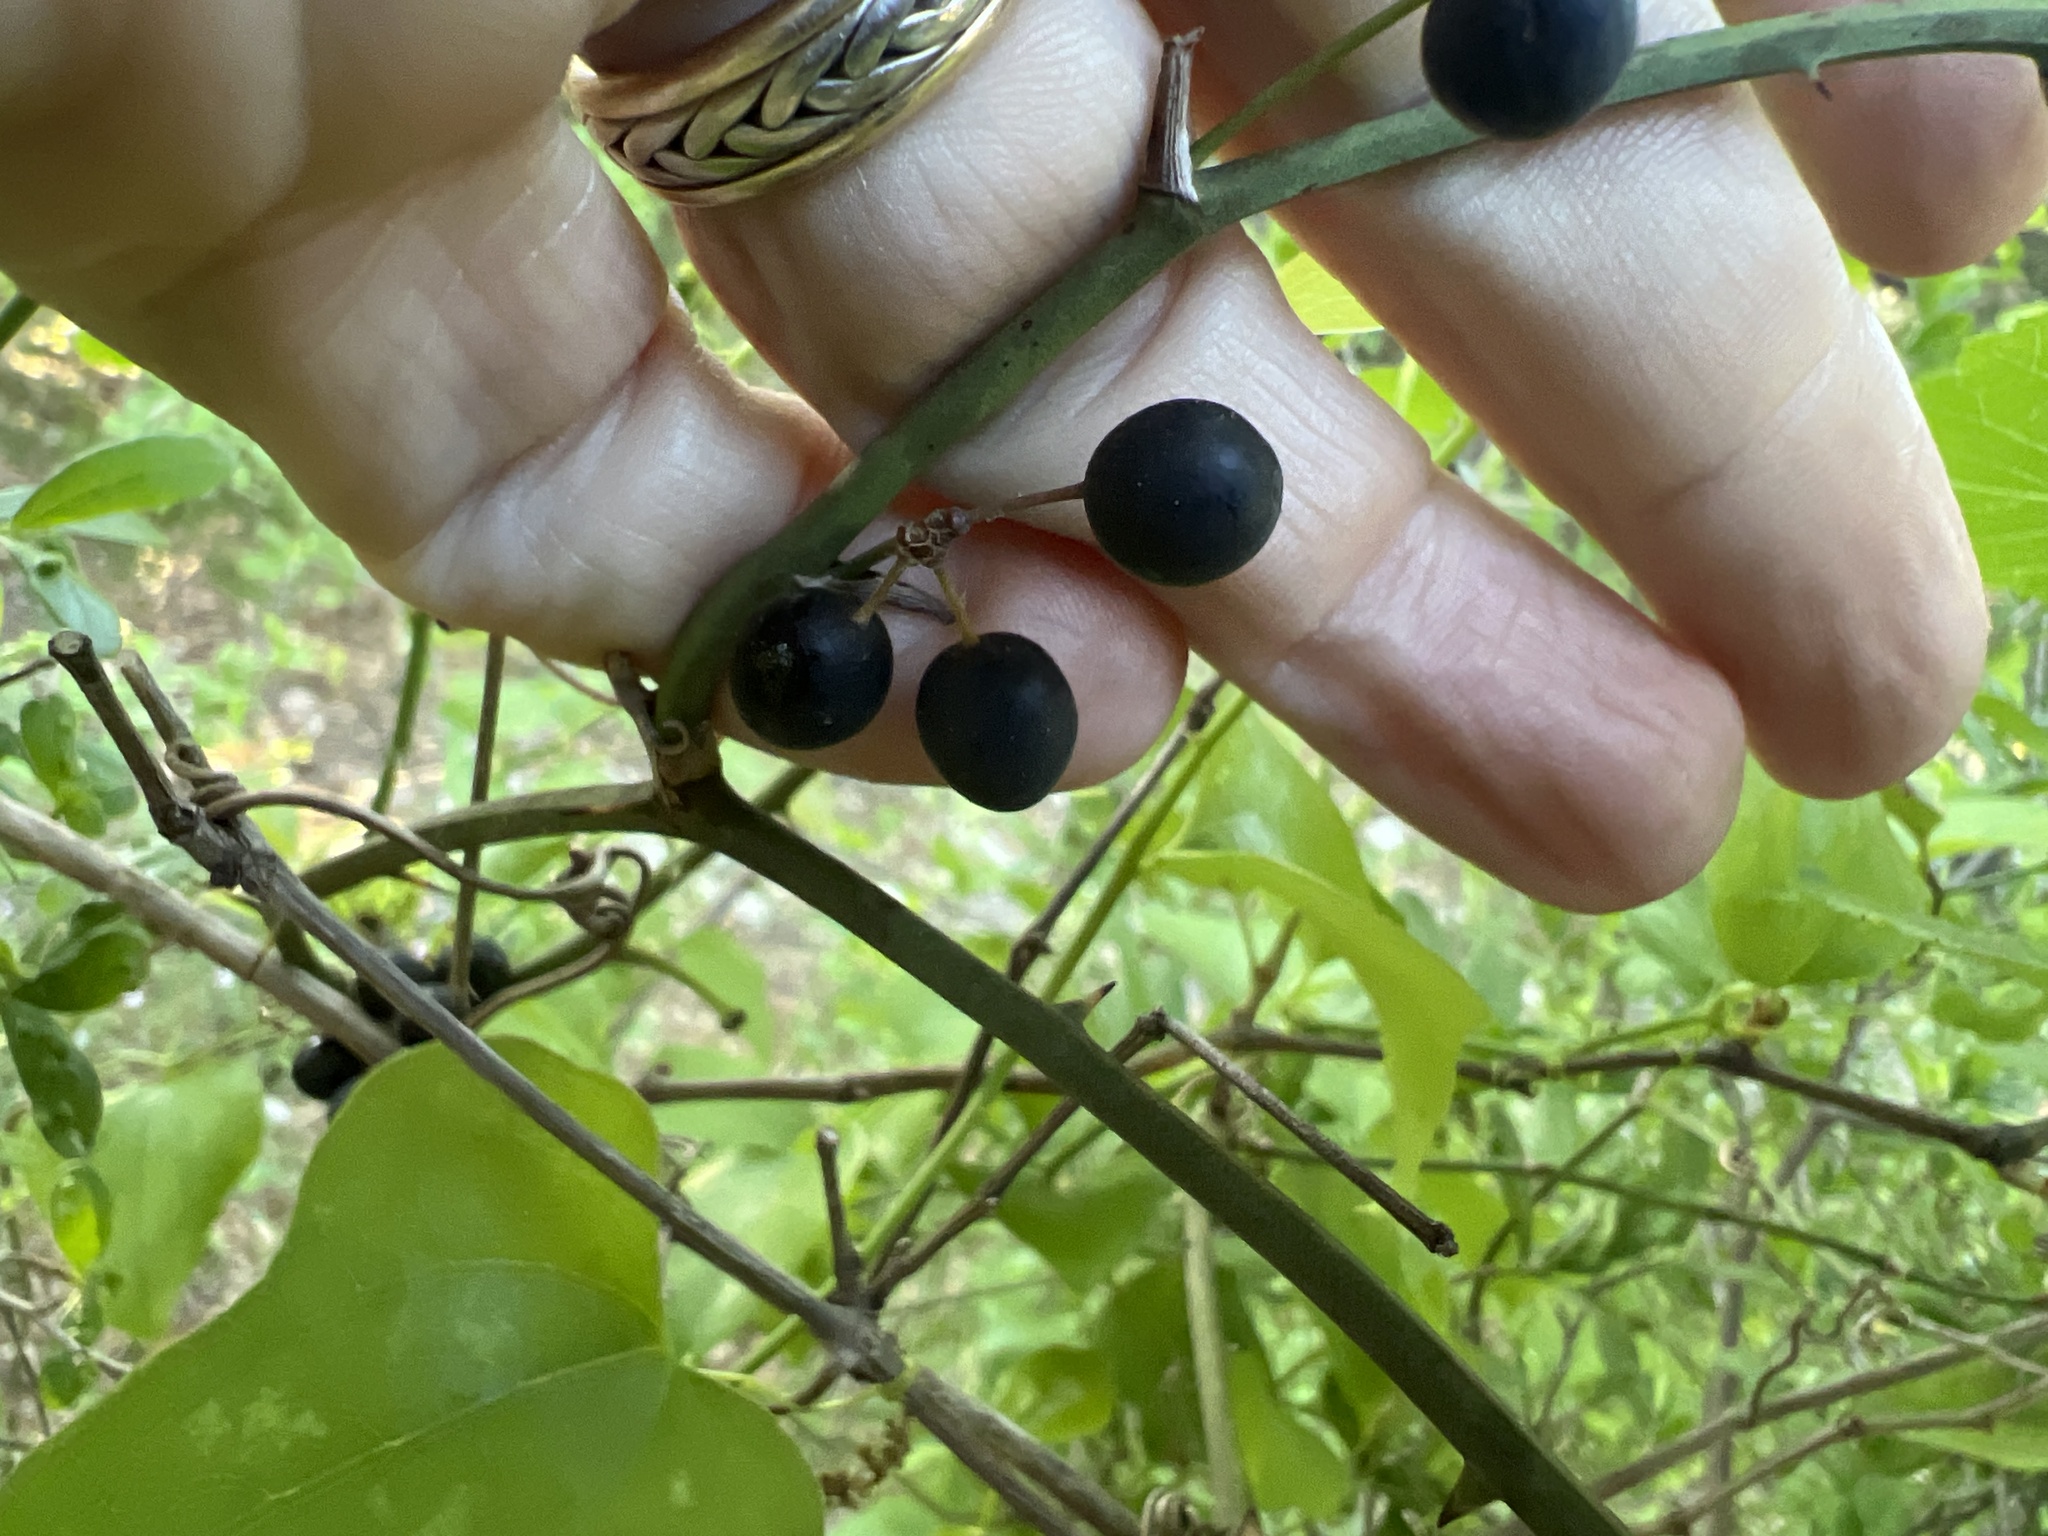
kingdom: Plantae
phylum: Tracheophyta
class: Liliopsida
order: Liliales
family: Smilacaceae
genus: Smilax
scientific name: Smilax bona-nox
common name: Catbrier
